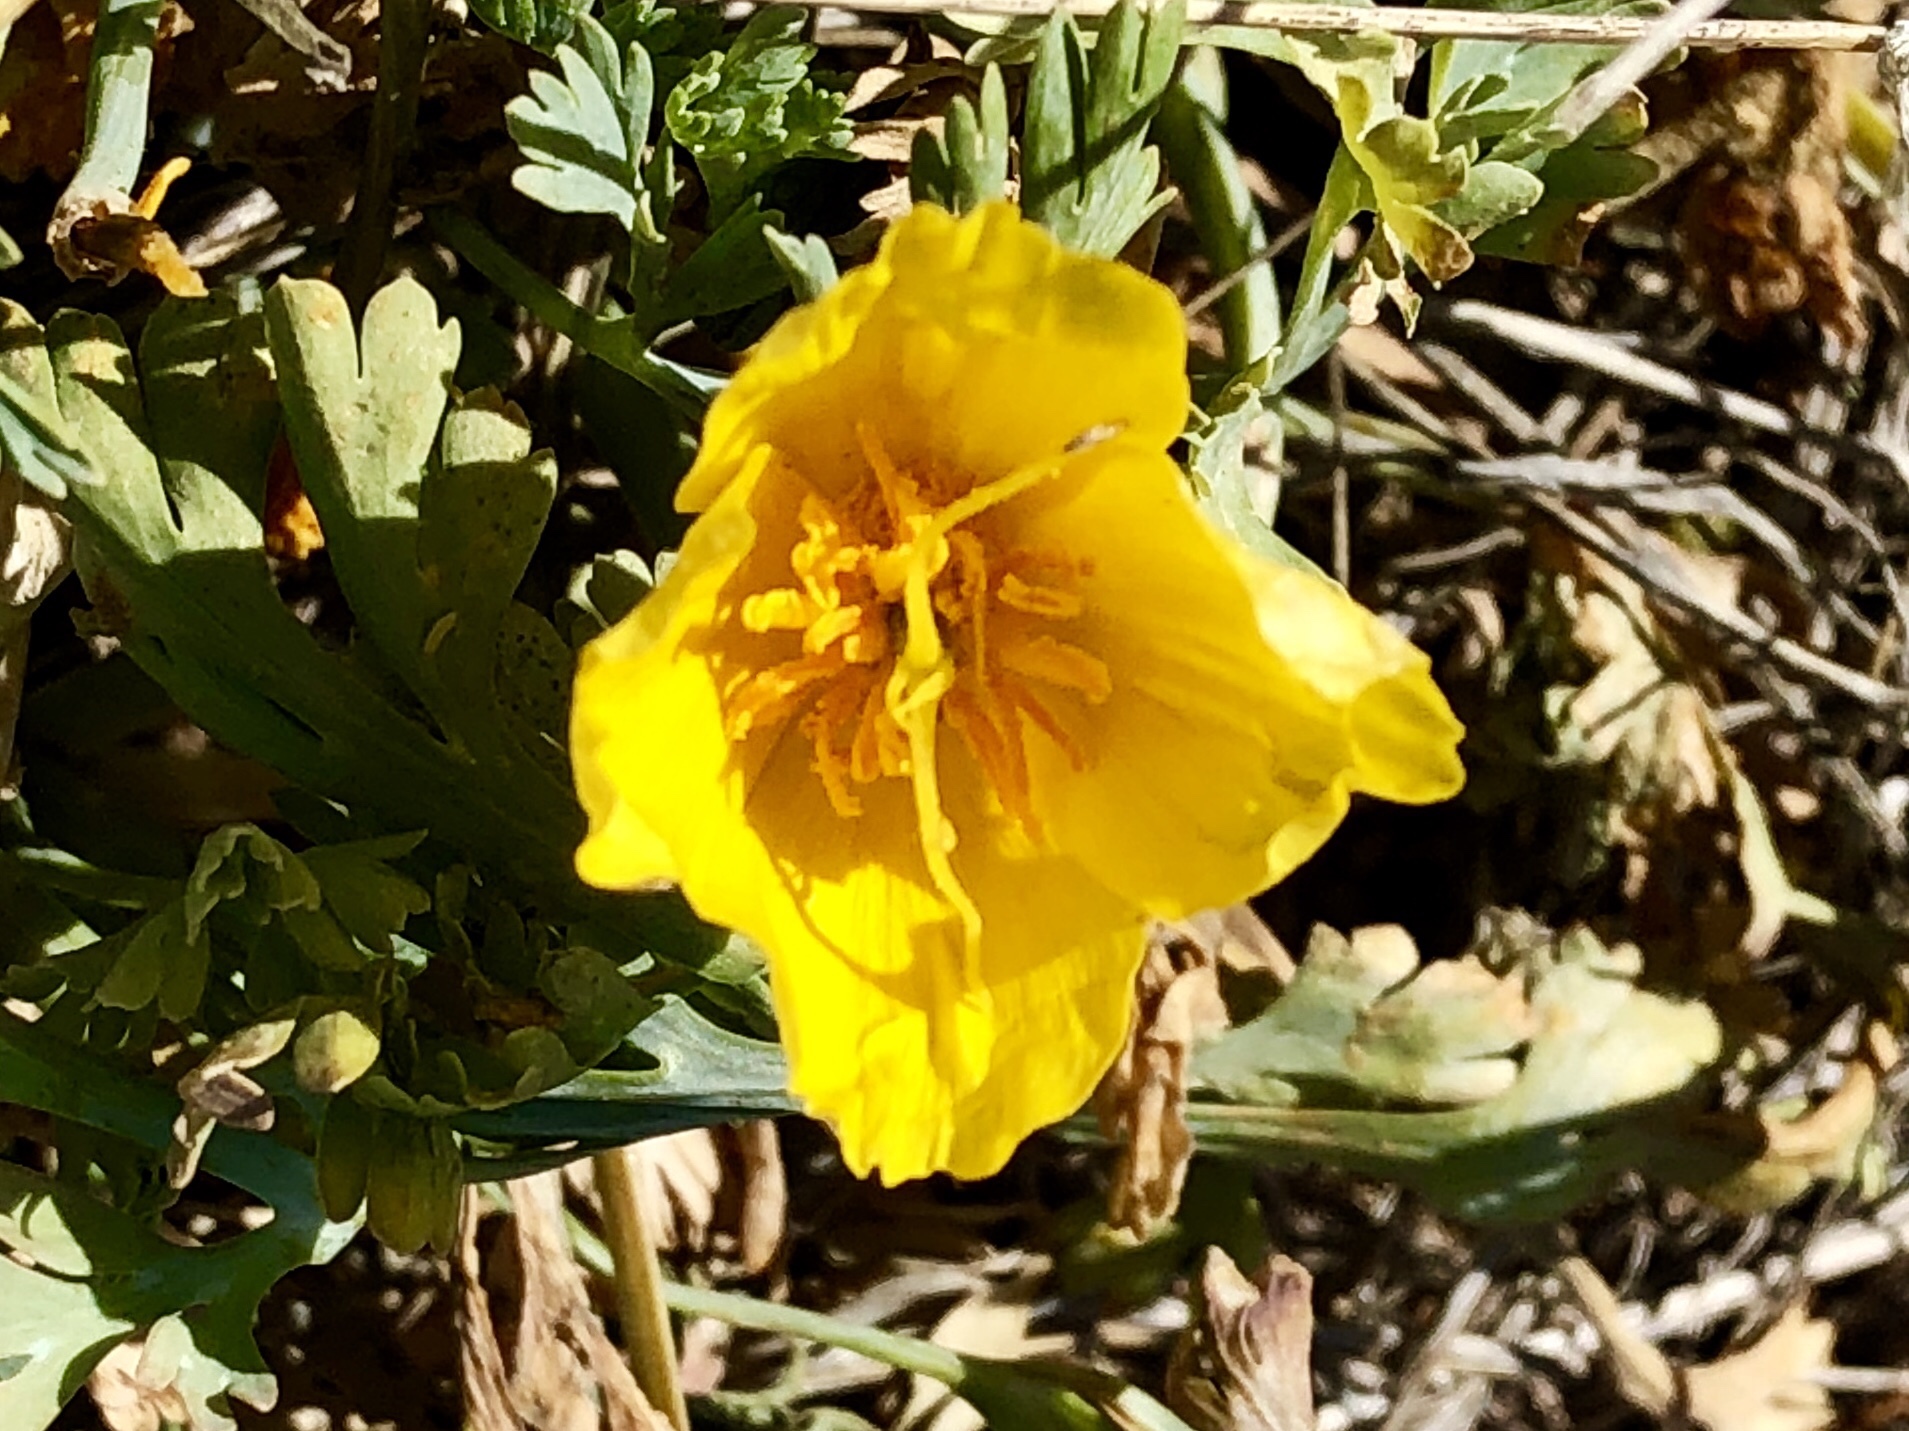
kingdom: Plantae
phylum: Tracheophyta
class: Magnoliopsida
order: Ranunculales
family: Papaveraceae
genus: Eschscholzia
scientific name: Eschscholzia californica
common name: California poppy
